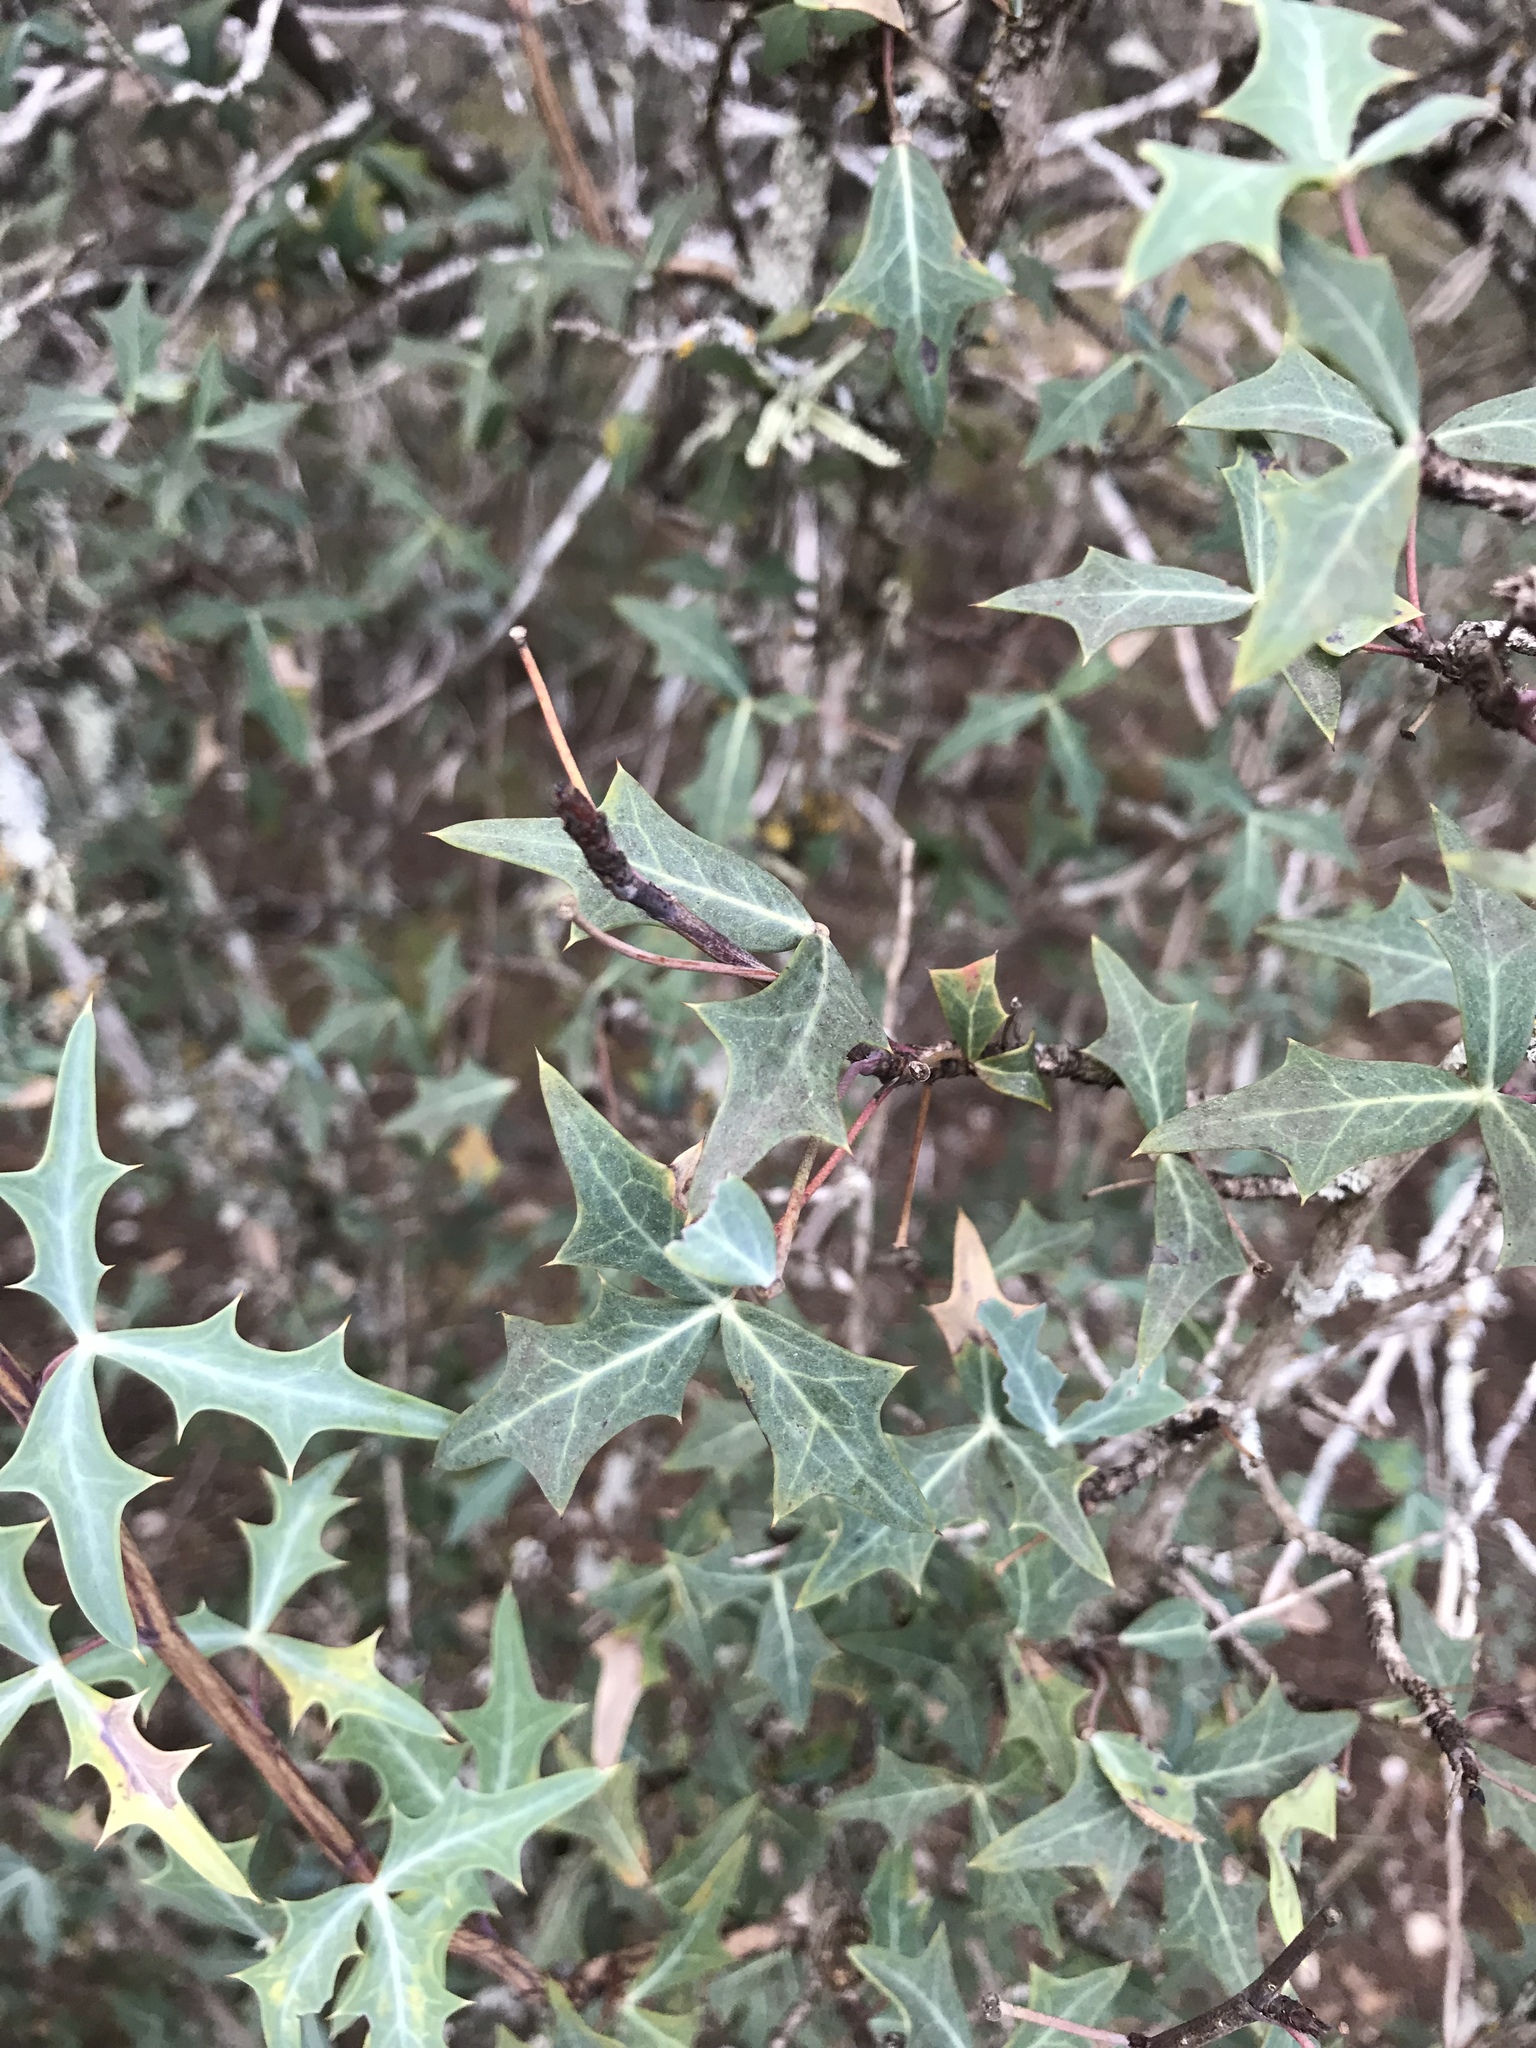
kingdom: Plantae
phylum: Tracheophyta
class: Magnoliopsida
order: Ranunculales
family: Berberidaceae
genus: Alloberberis
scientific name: Alloberberis trifoliolata
